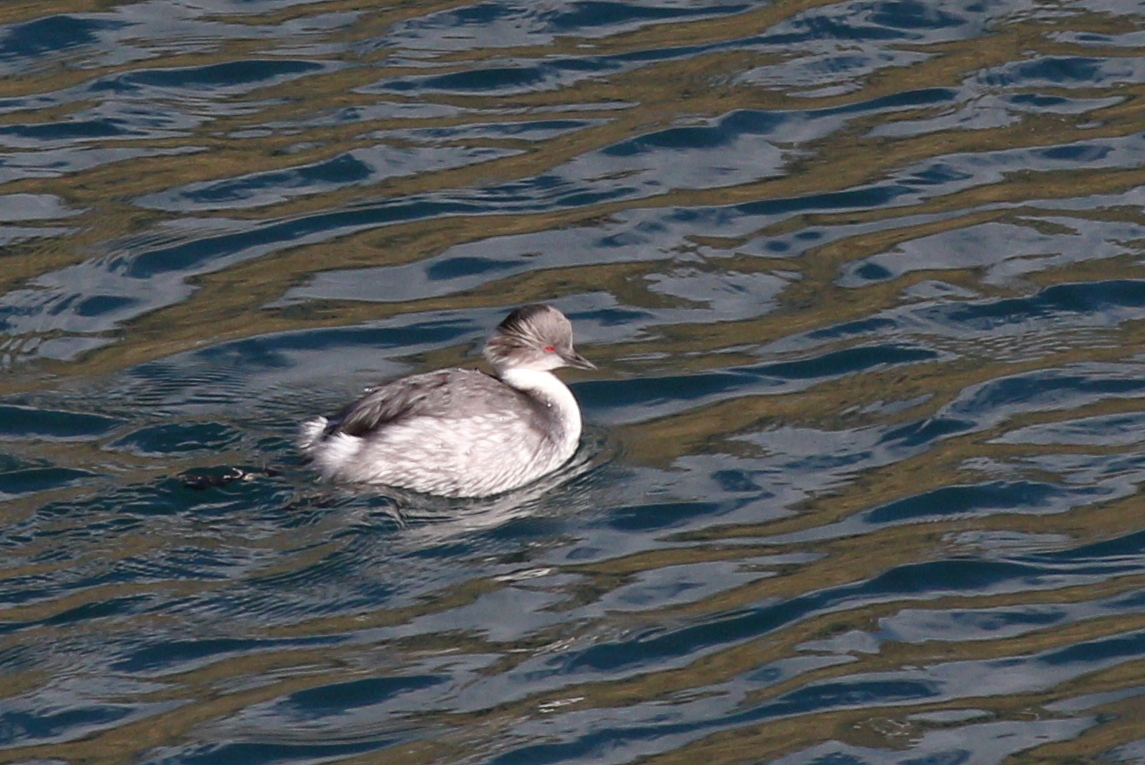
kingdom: Animalia
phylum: Chordata
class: Aves
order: Podicipediformes
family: Podicipedidae
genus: Podiceps
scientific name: Podiceps occipitalis
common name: Silvery grebe
